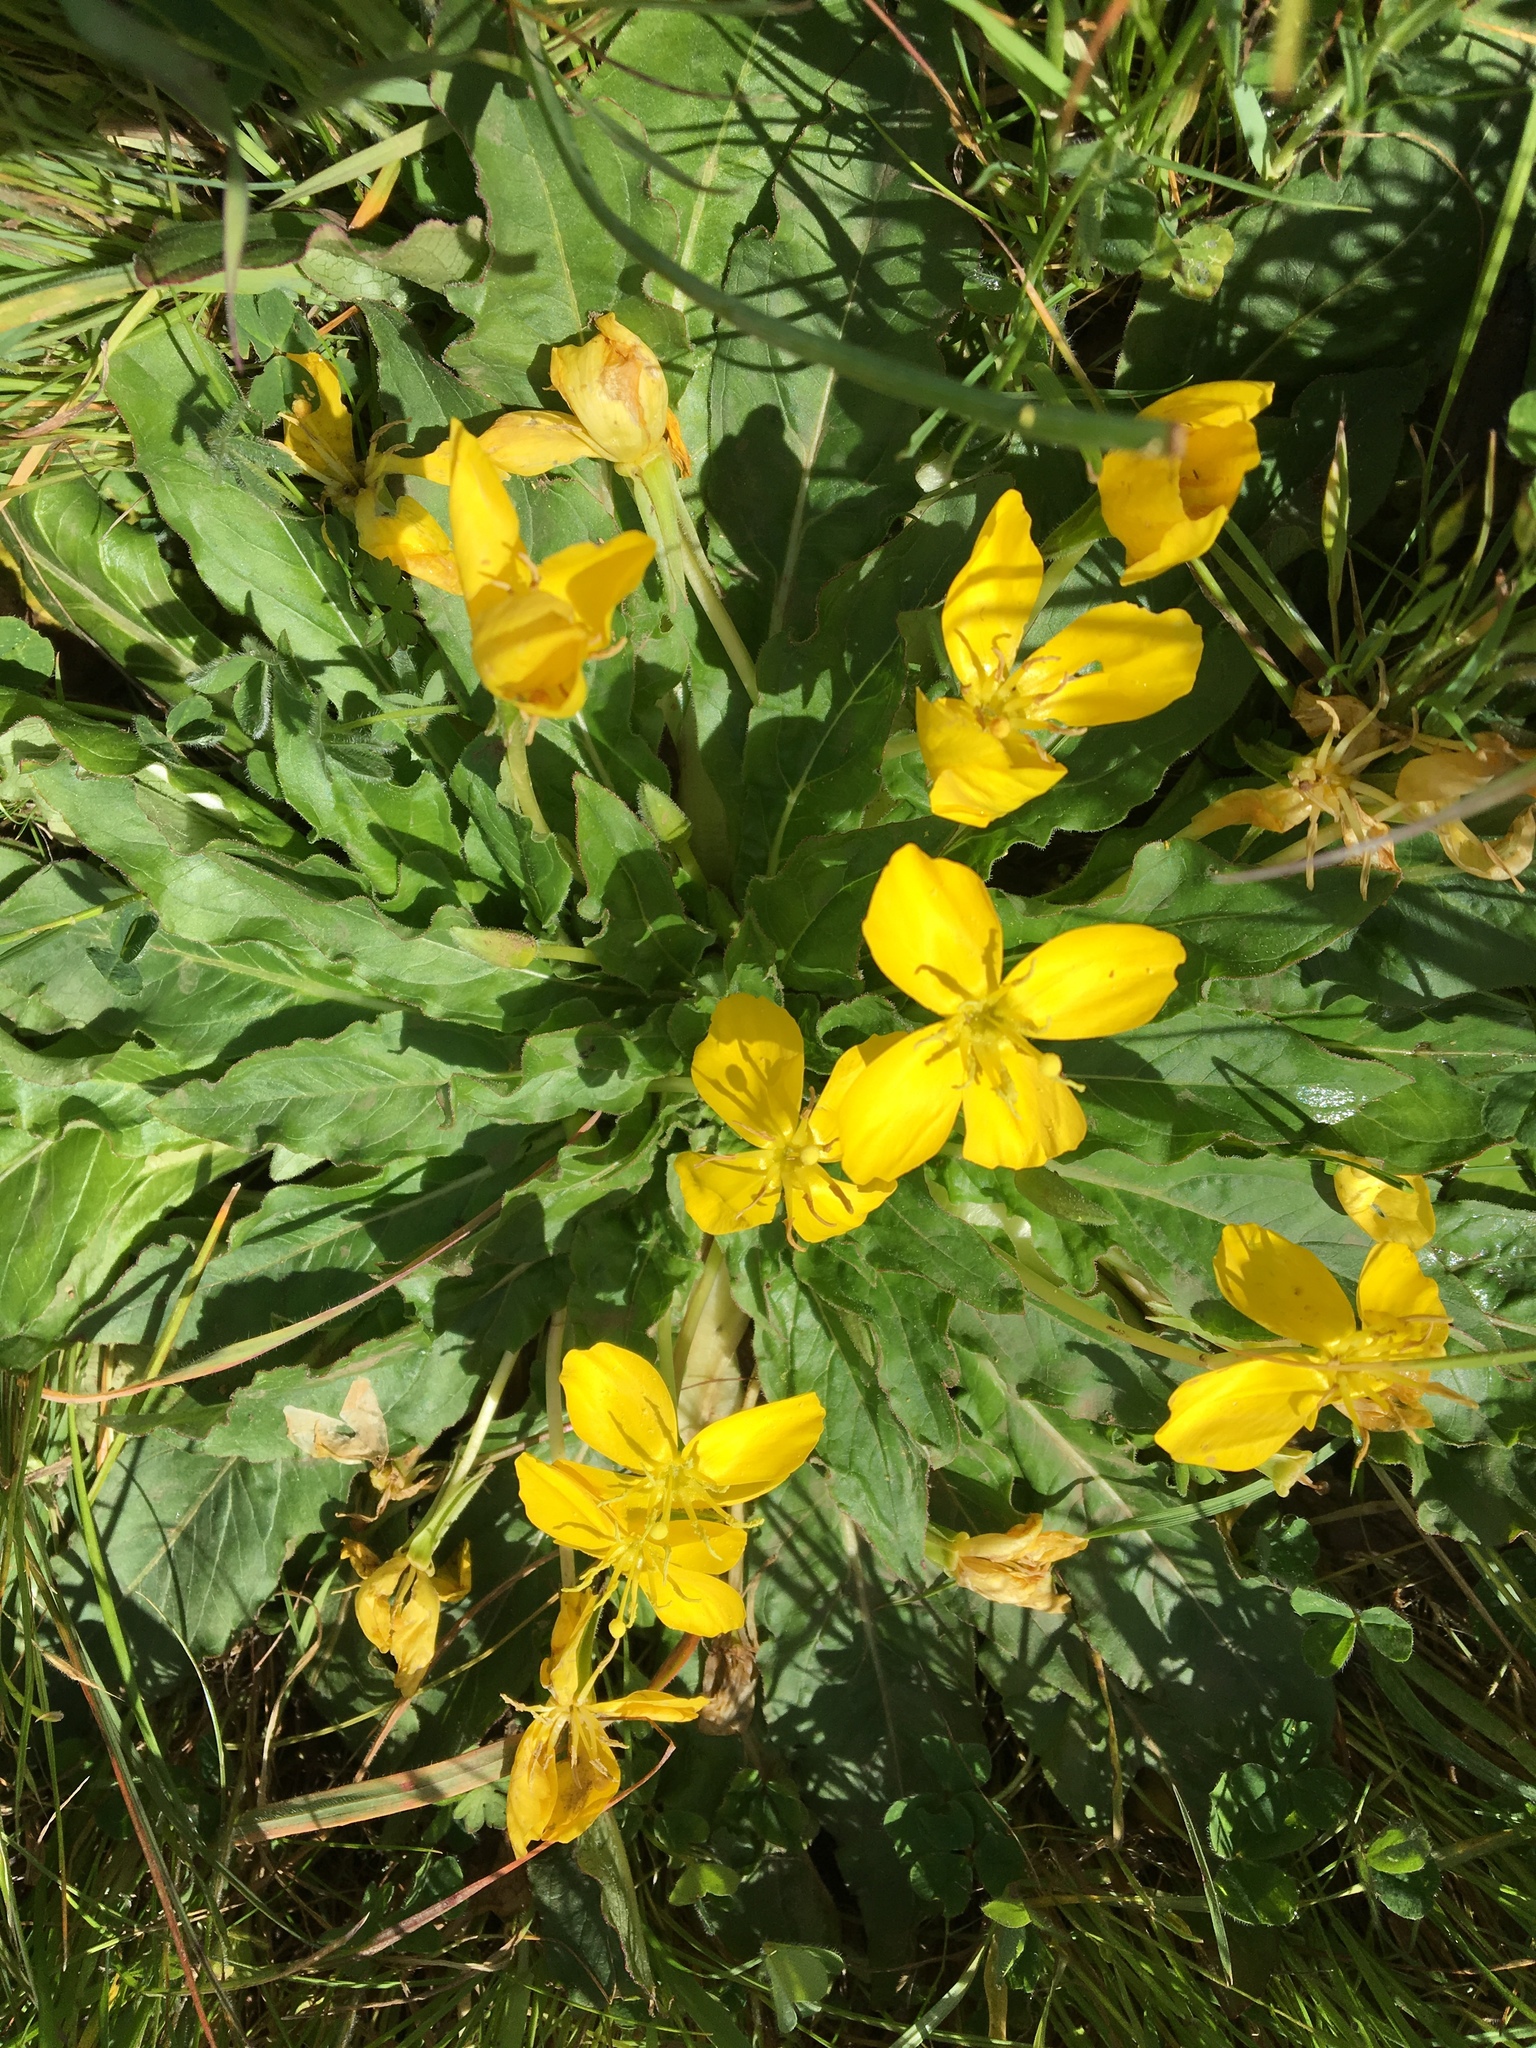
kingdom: Plantae
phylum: Tracheophyta
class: Magnoliopsida
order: Myrtales
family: Onagraceae
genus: Taraxia
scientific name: Taraxia ovata
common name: Goldeneggs
